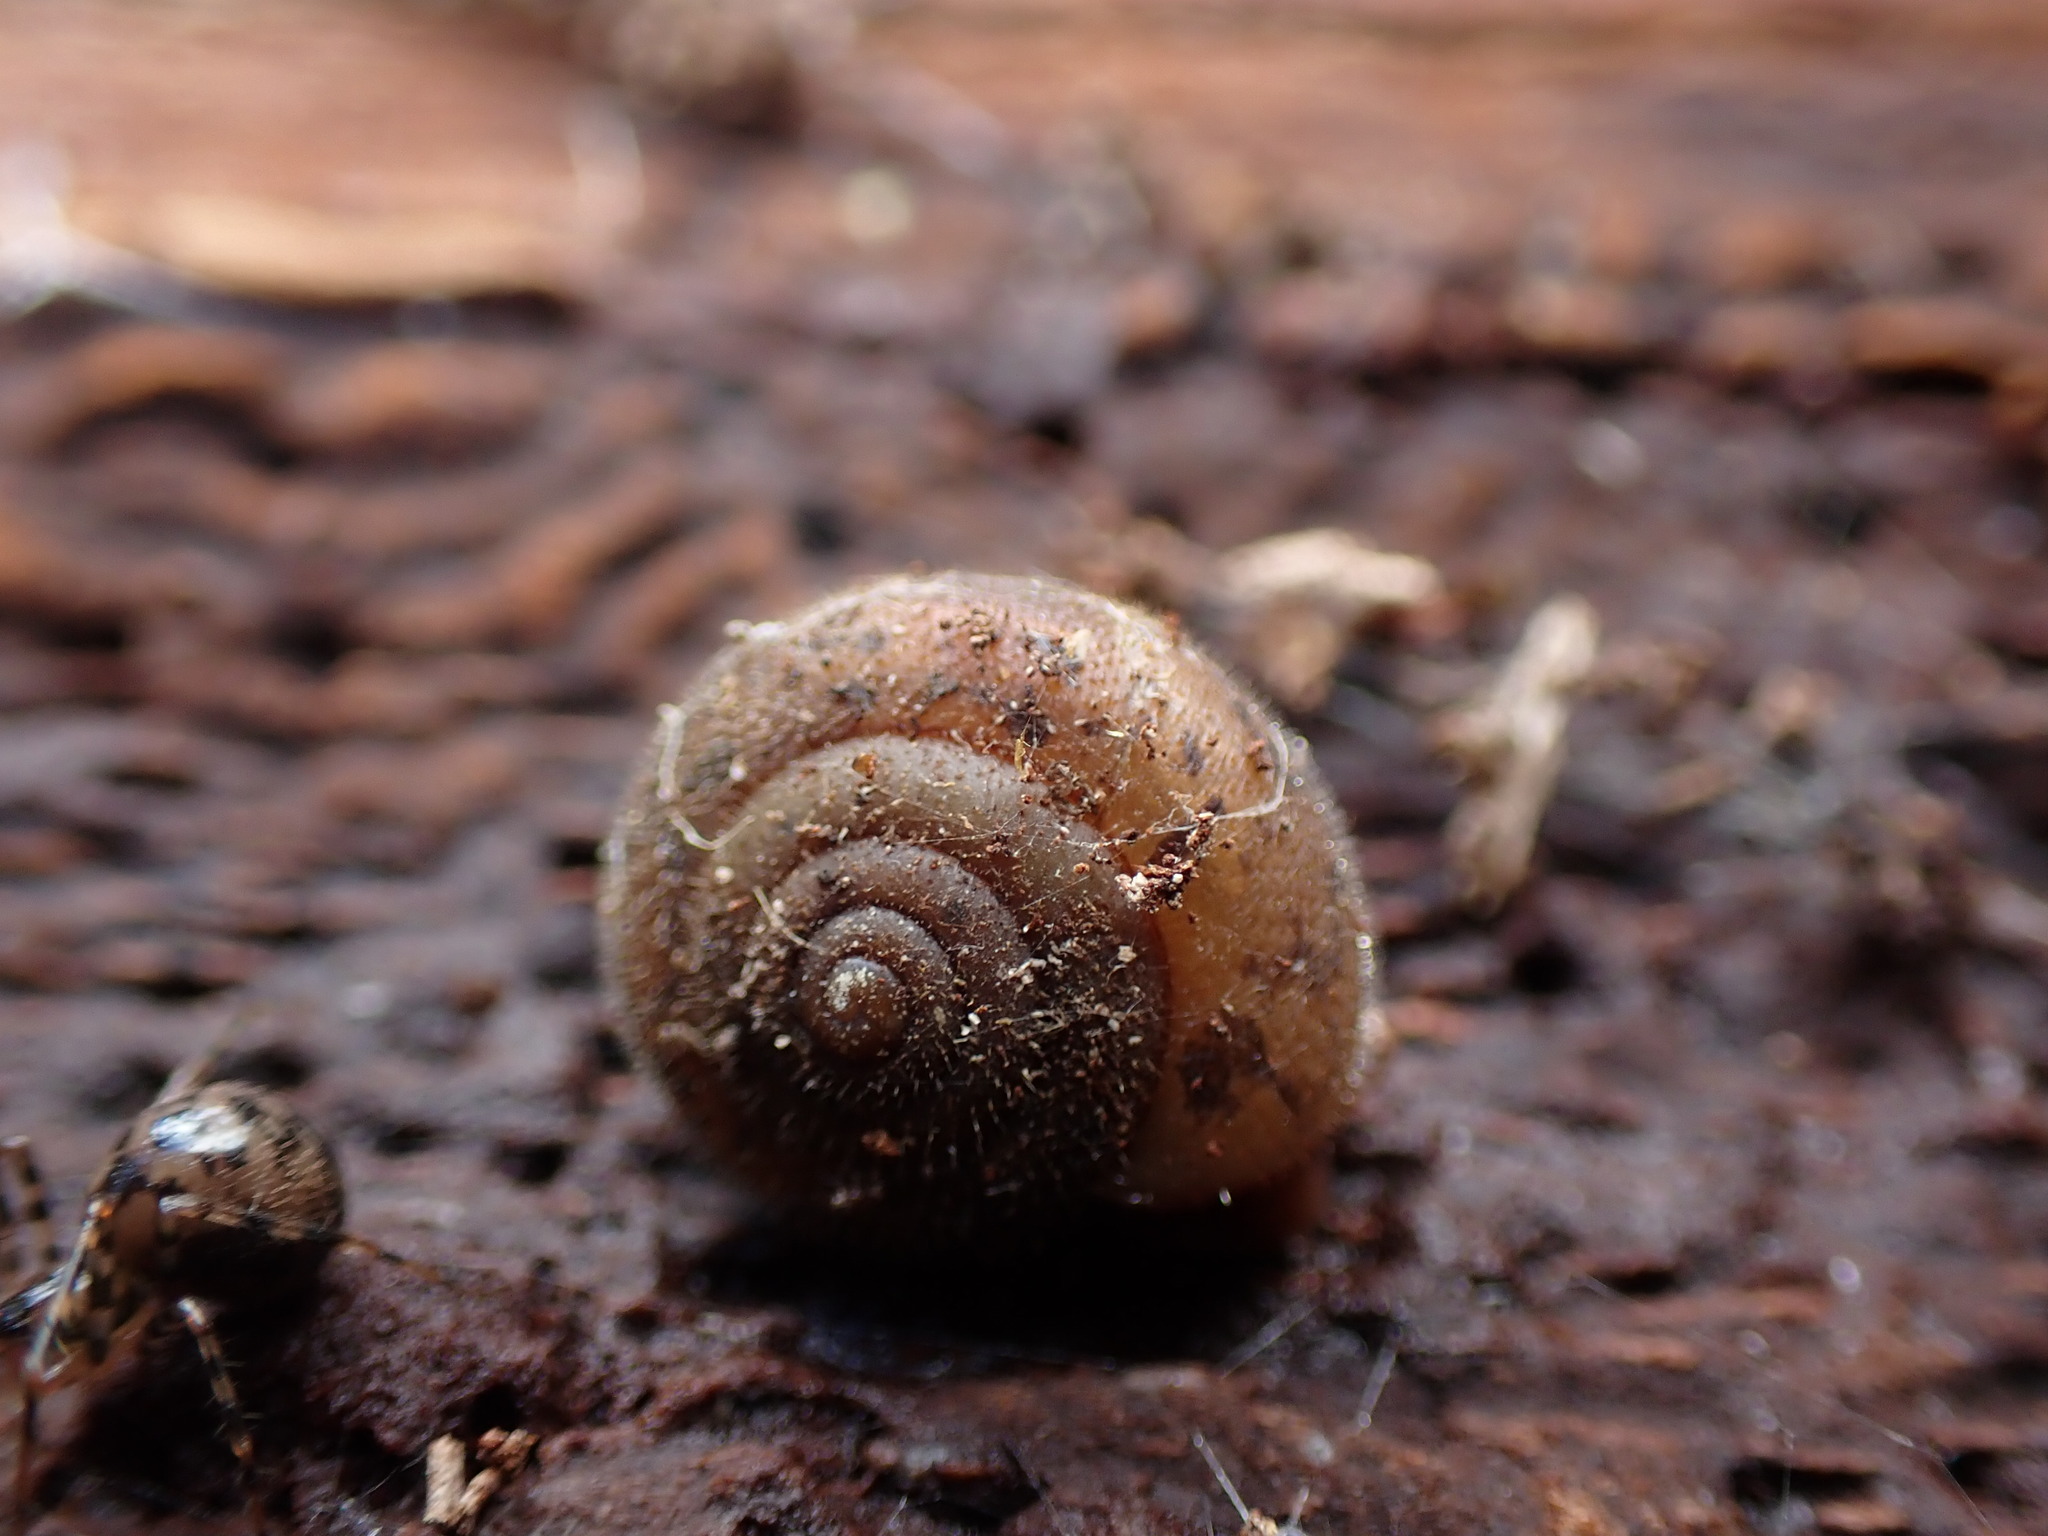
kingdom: Animalia
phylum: Mollusca
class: Gastropoda
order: Stylommatophora
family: Polygyridae
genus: Vespericola
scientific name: Vespericola columbianus
